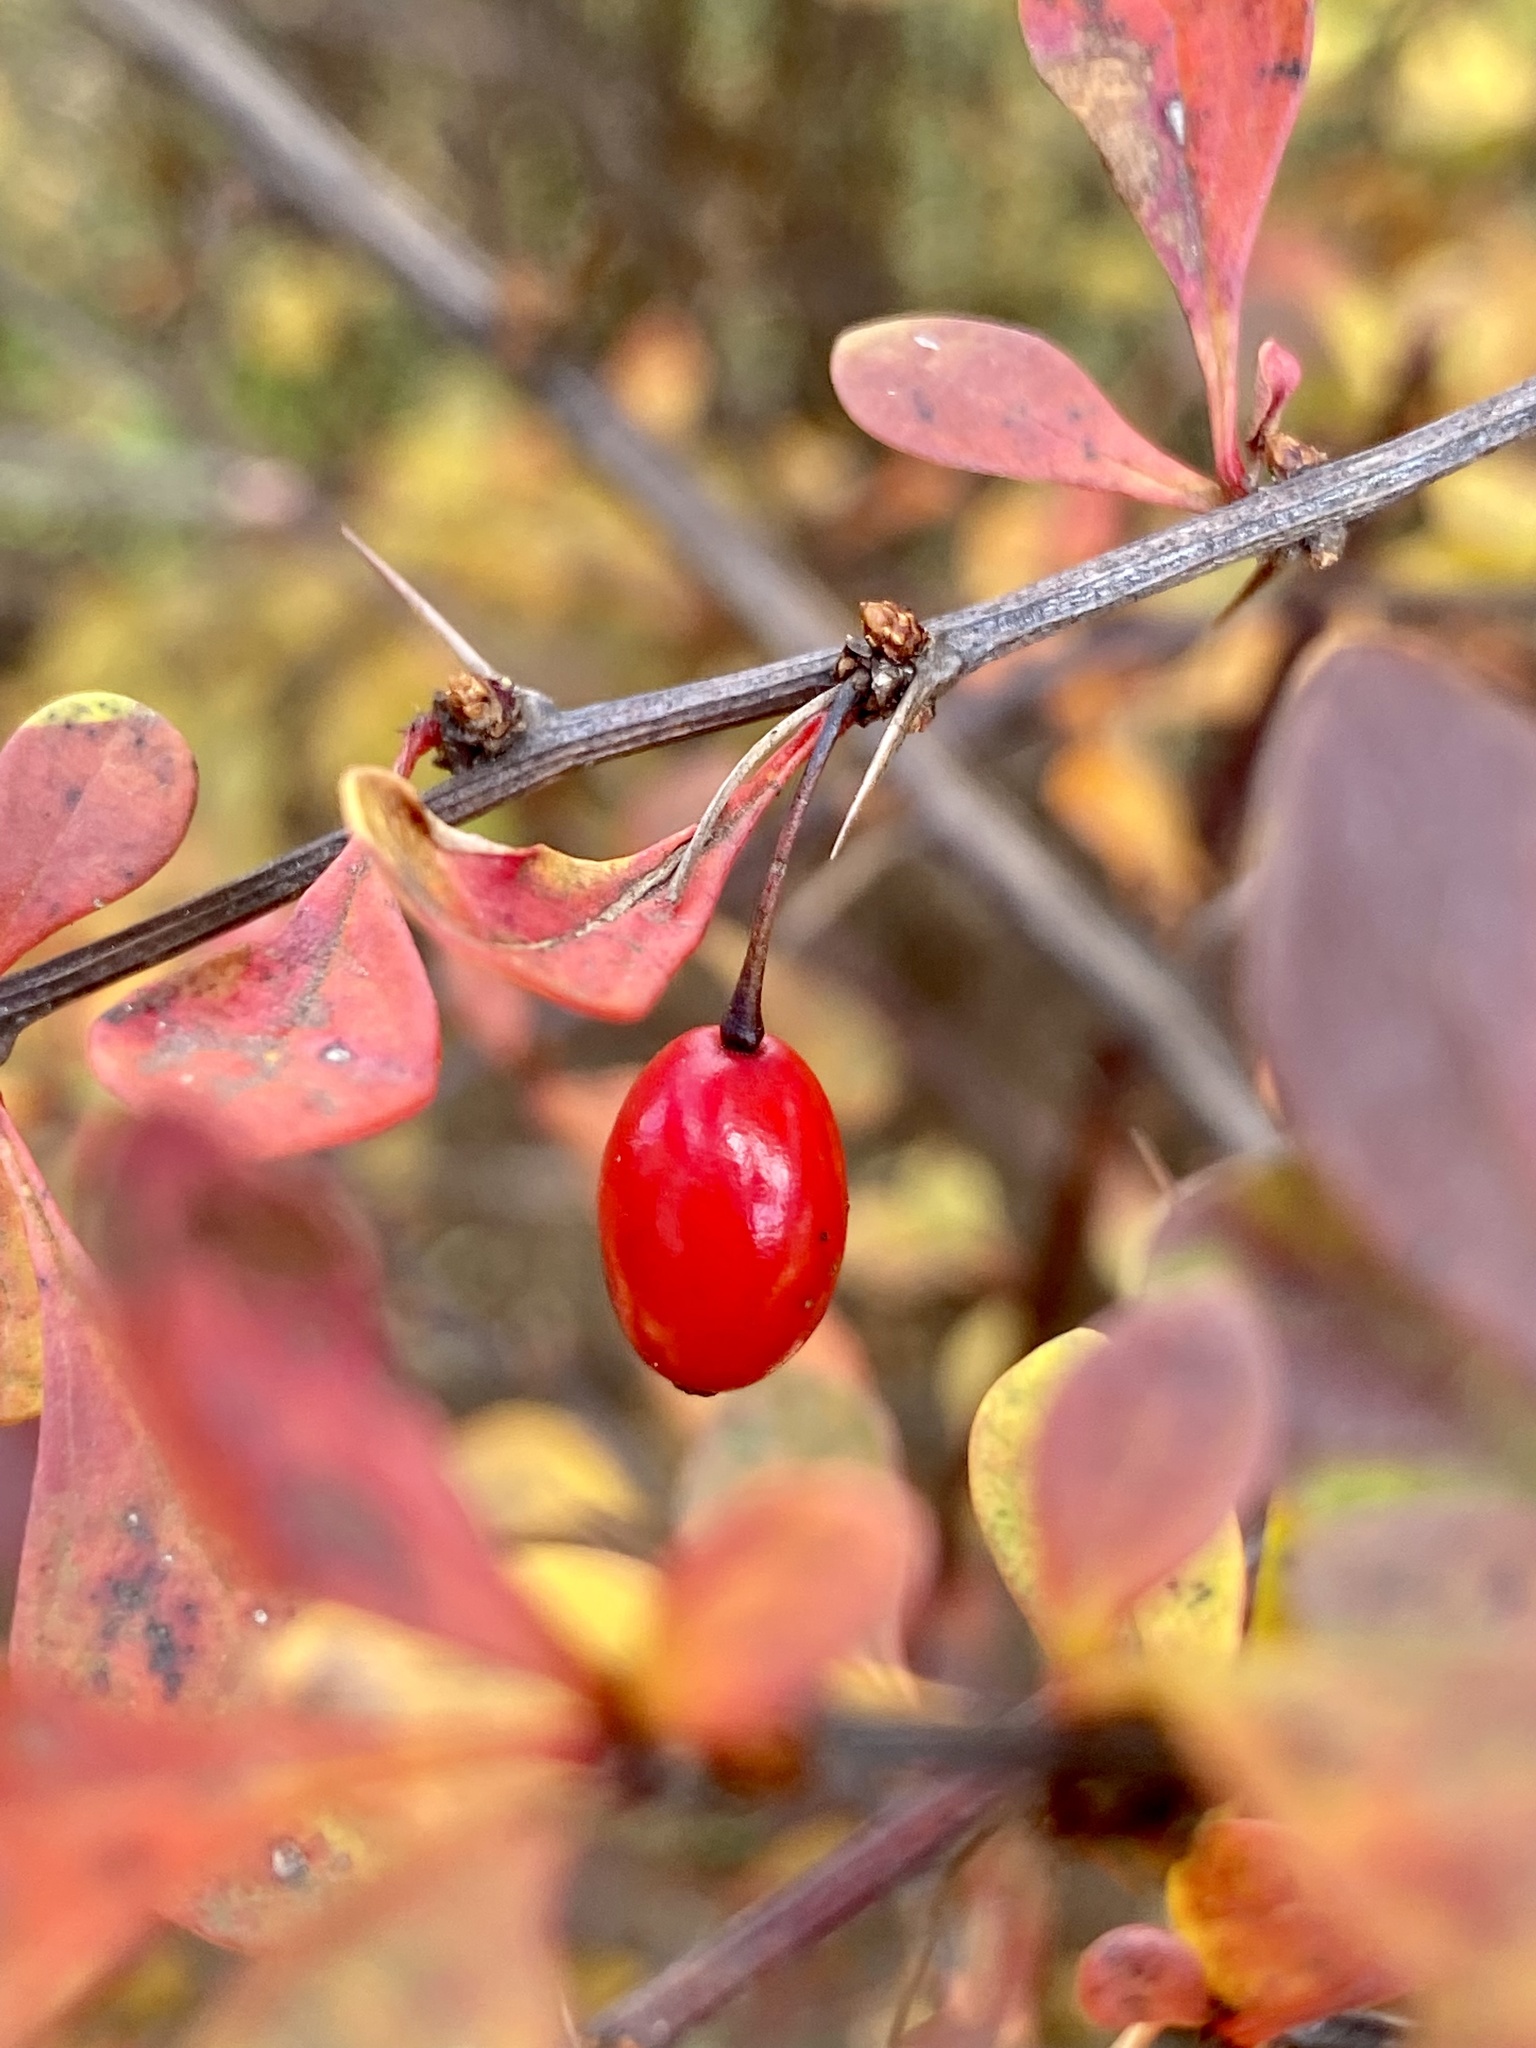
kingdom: Plantae
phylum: Tracheophyta
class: Magnoliopsida
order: Ranunculales
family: Berberidaceae
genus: Berberis
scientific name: Berberis thunbergii
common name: Japanese barberry
